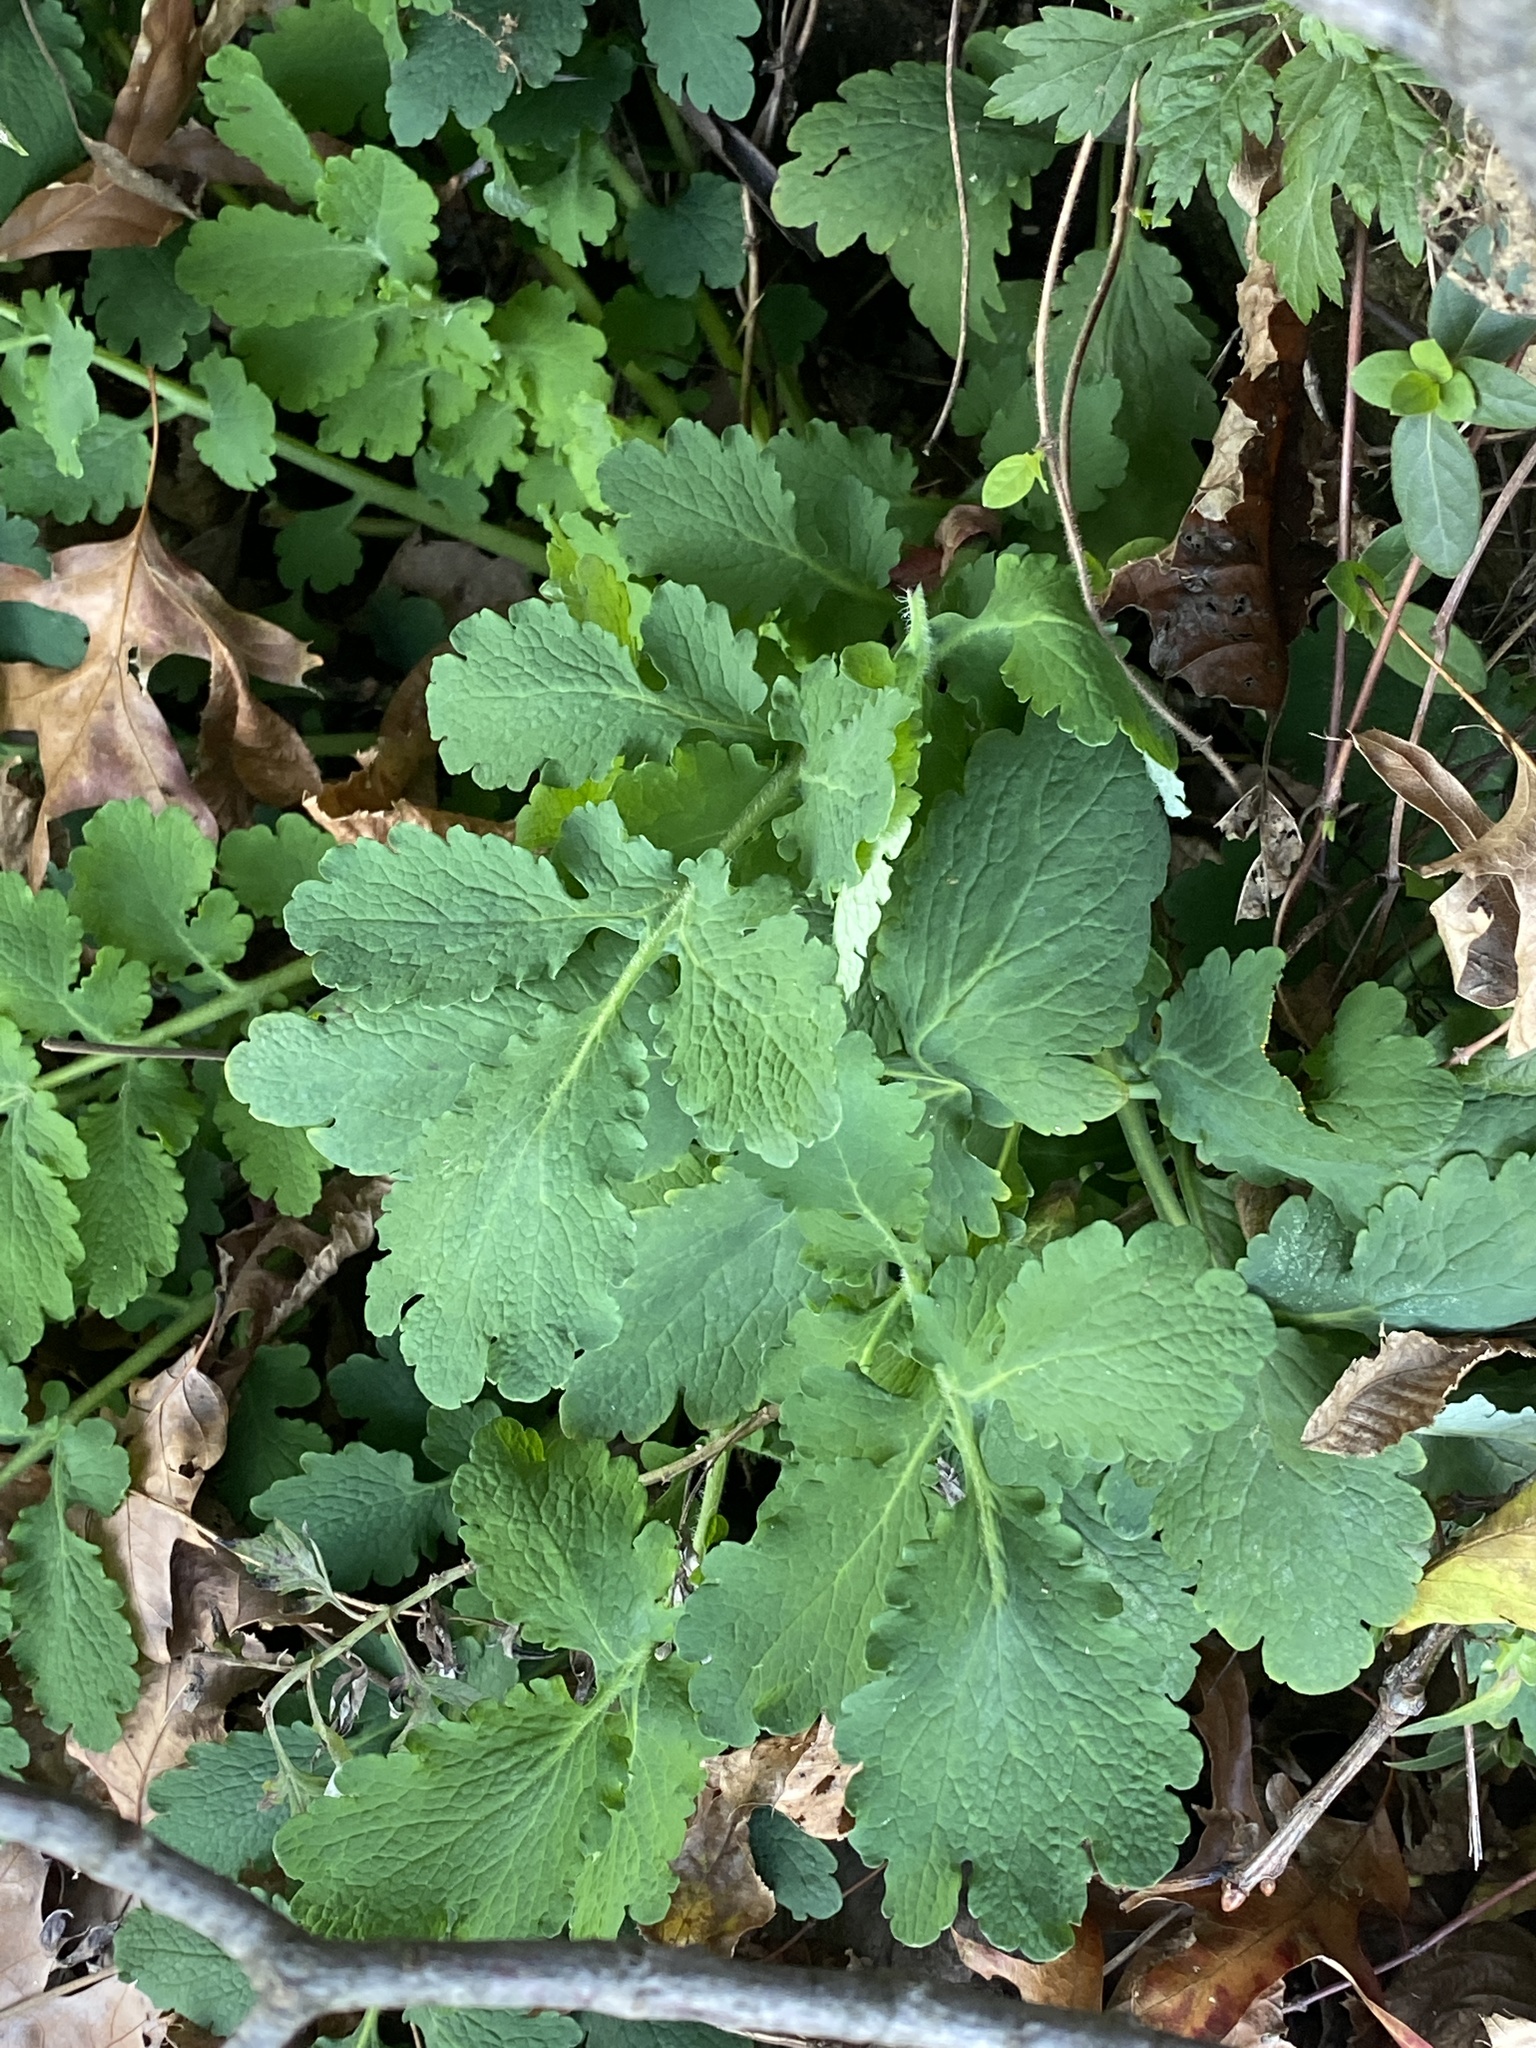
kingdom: Plantae
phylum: Tracheophyta
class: Magnoliopsida
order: Ranunculales
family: Papaveraceae
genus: Chelidonium
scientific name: Chelidonium majus
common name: Greater celandine
